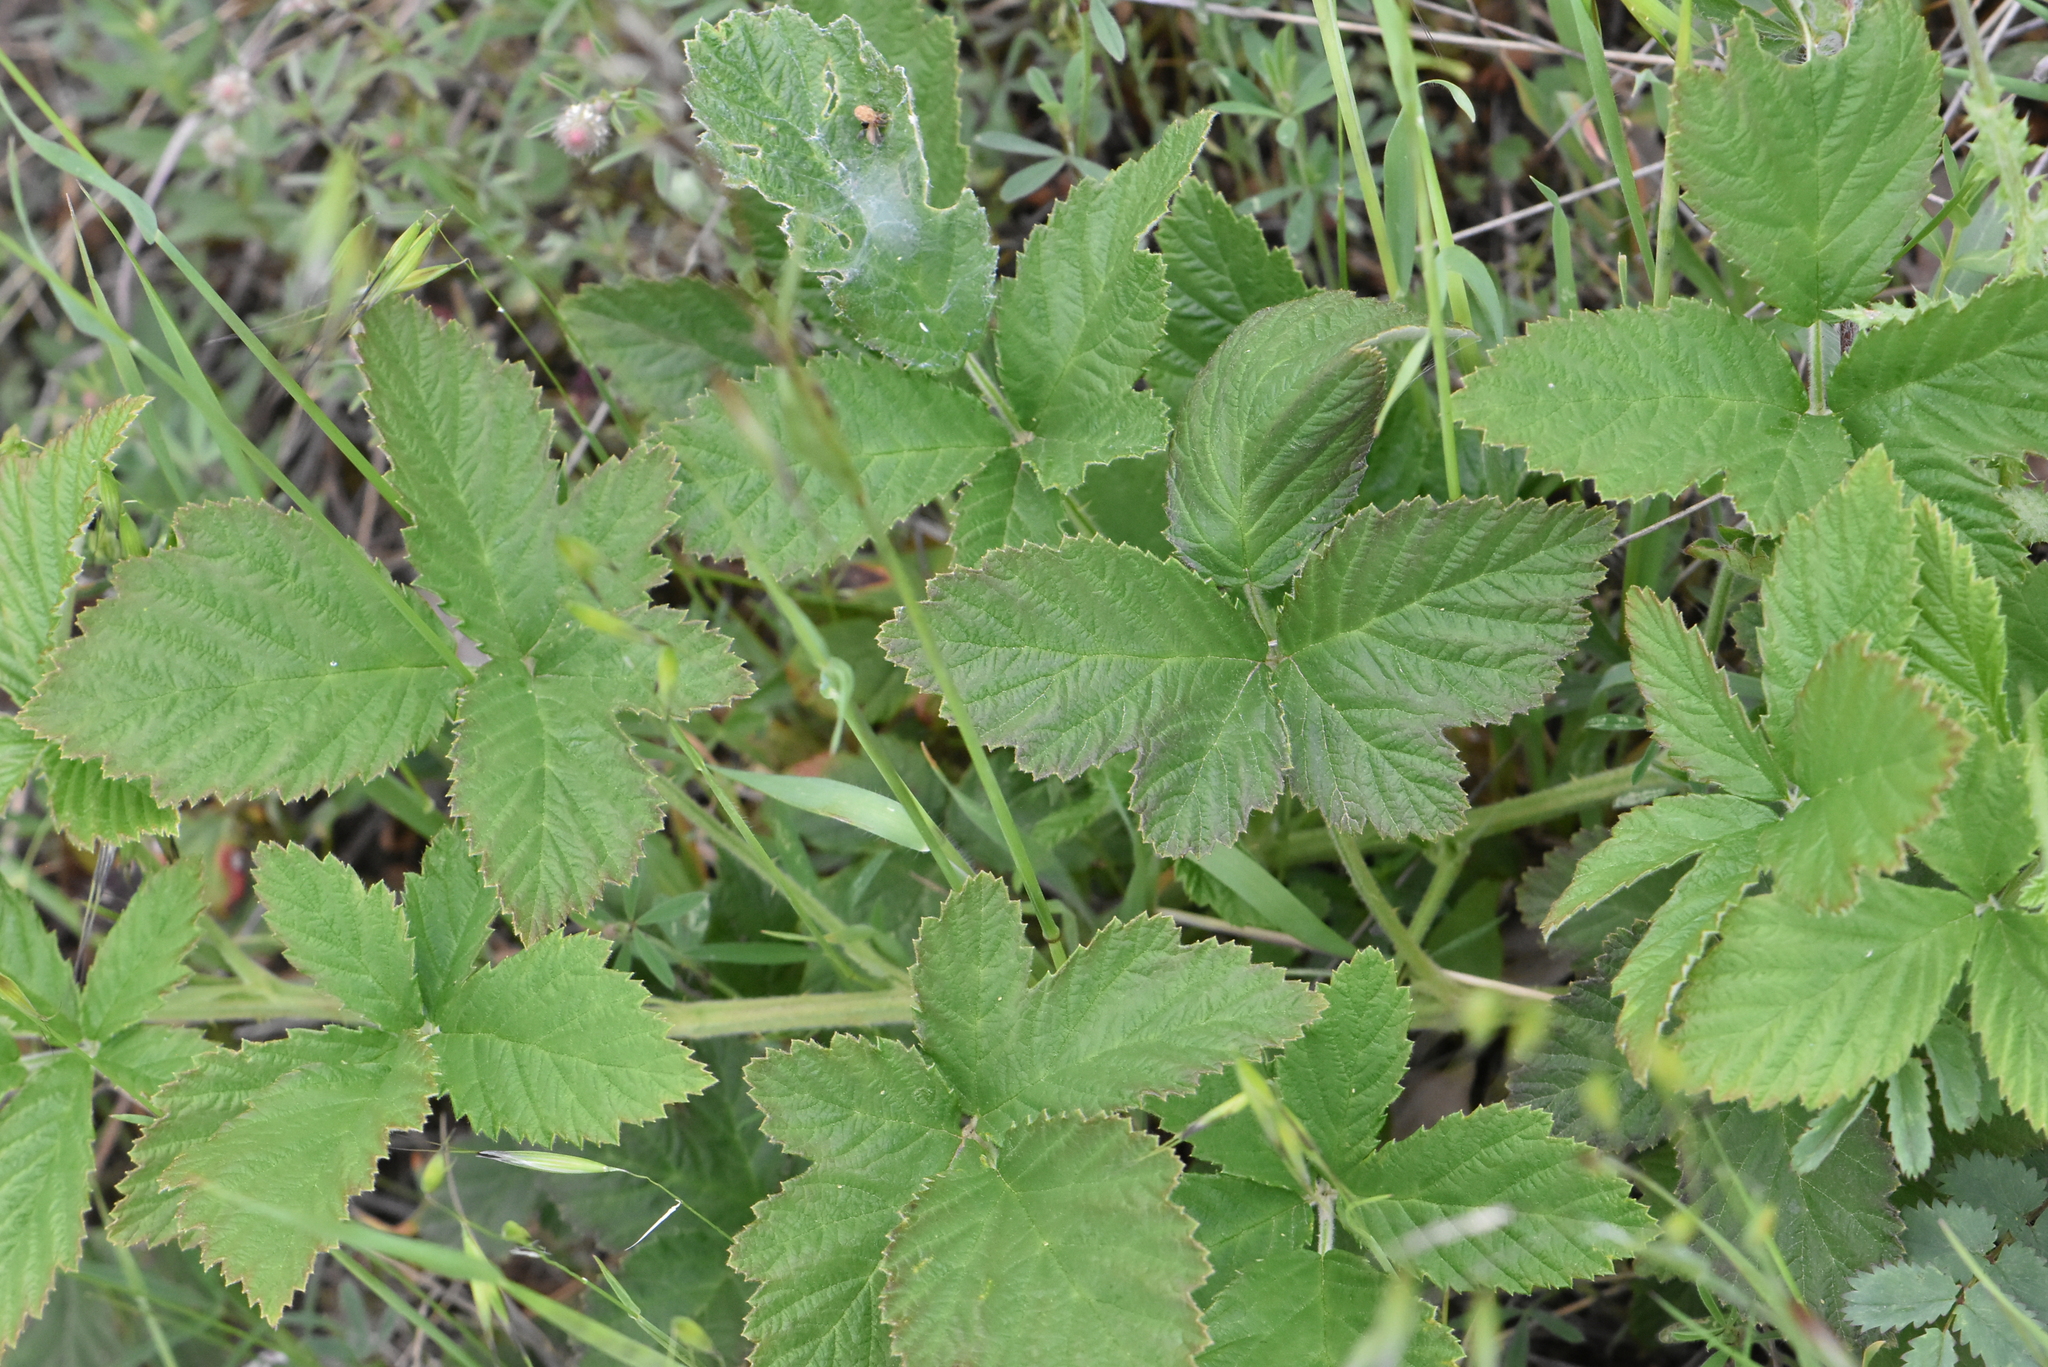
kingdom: Plantae
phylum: Tracheophyta
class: Magnoliopsida
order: Rosales
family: Rosaceae
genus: Rubus
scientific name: Rubus canescens
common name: Wooly blackberry
